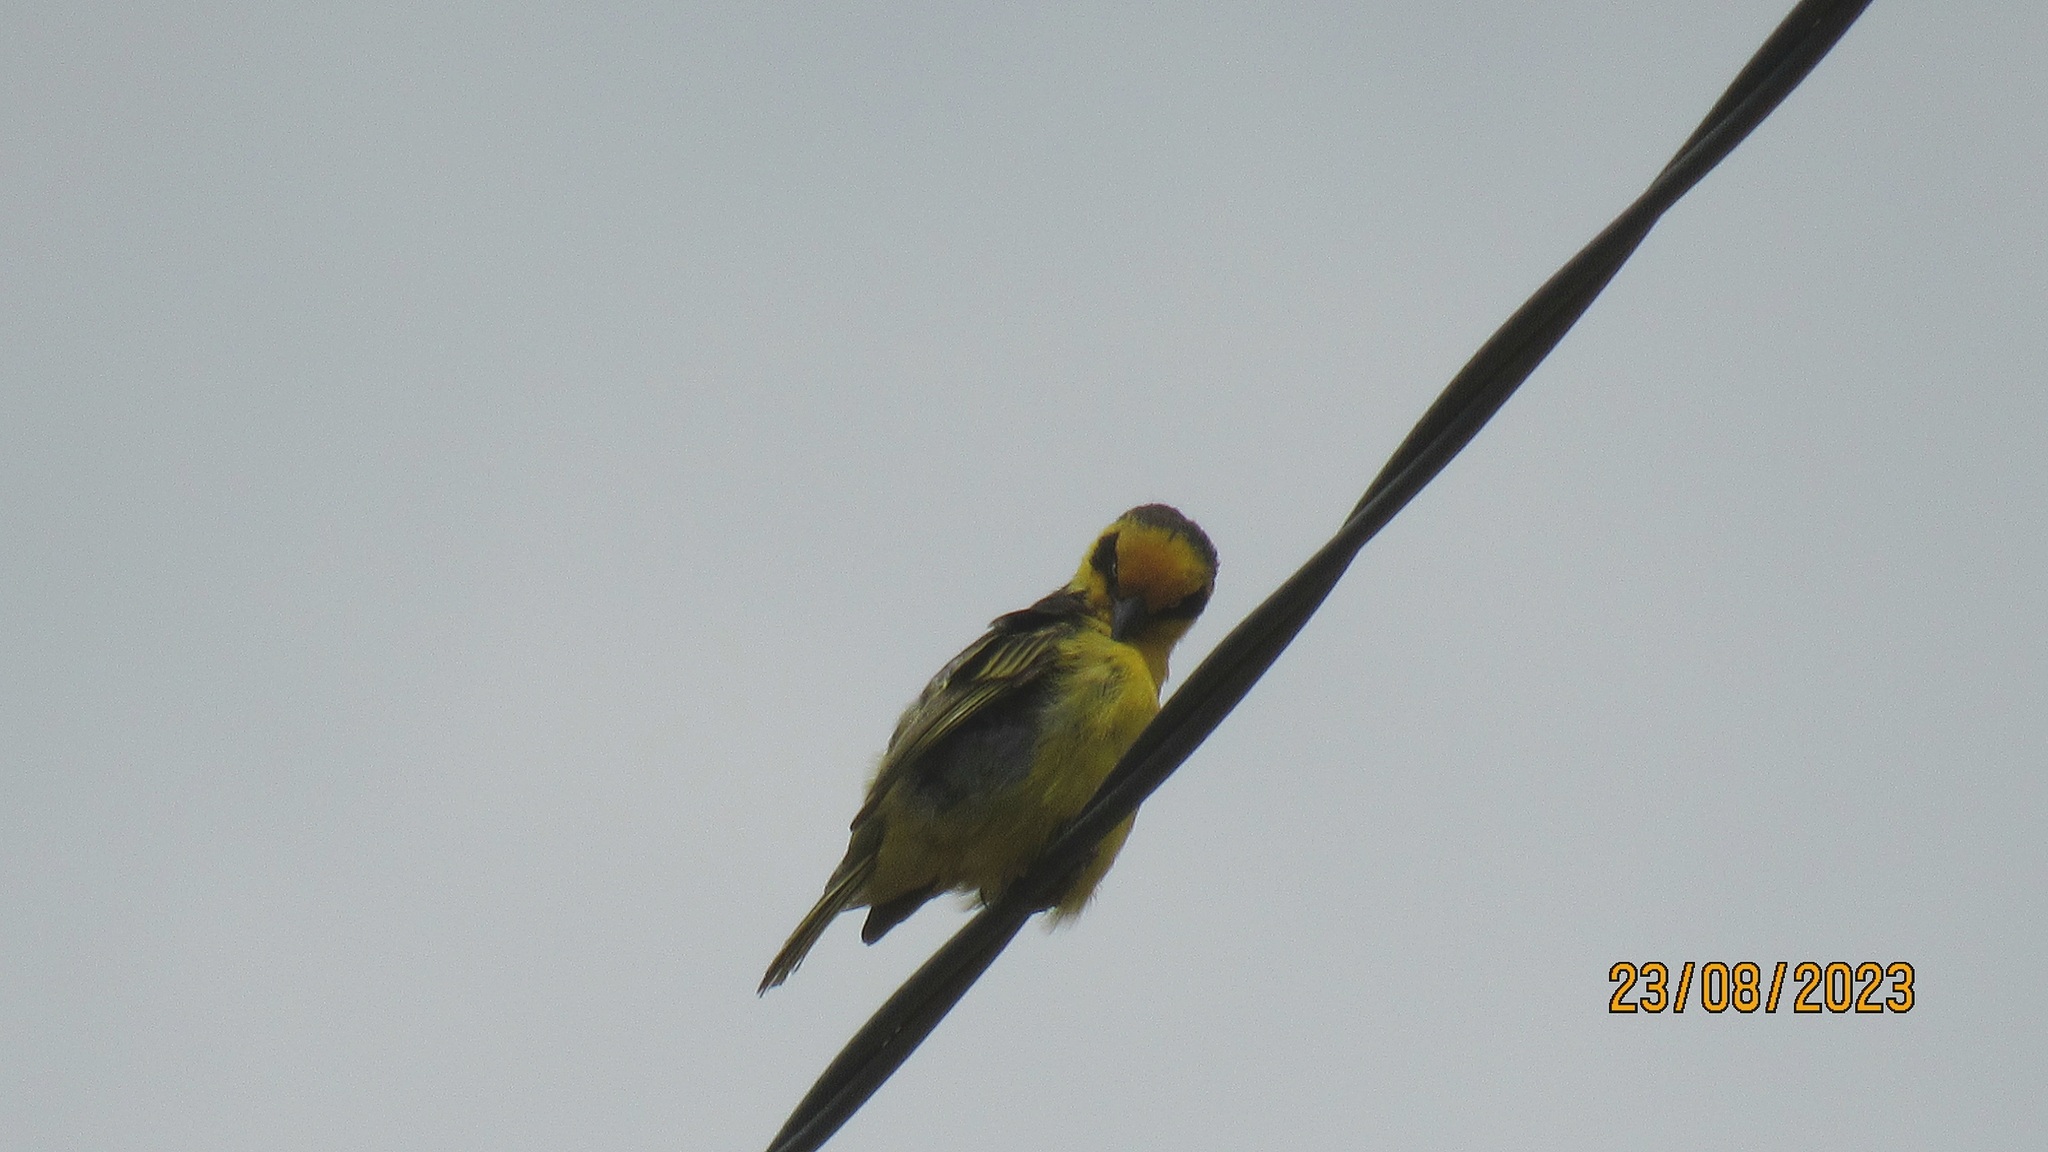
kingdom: Animalia
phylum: Chordata
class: Aves
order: Passeriformes
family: Ploceidae
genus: Ploceus
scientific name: Ploceus baglafecht
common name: Baglafecht weaver
